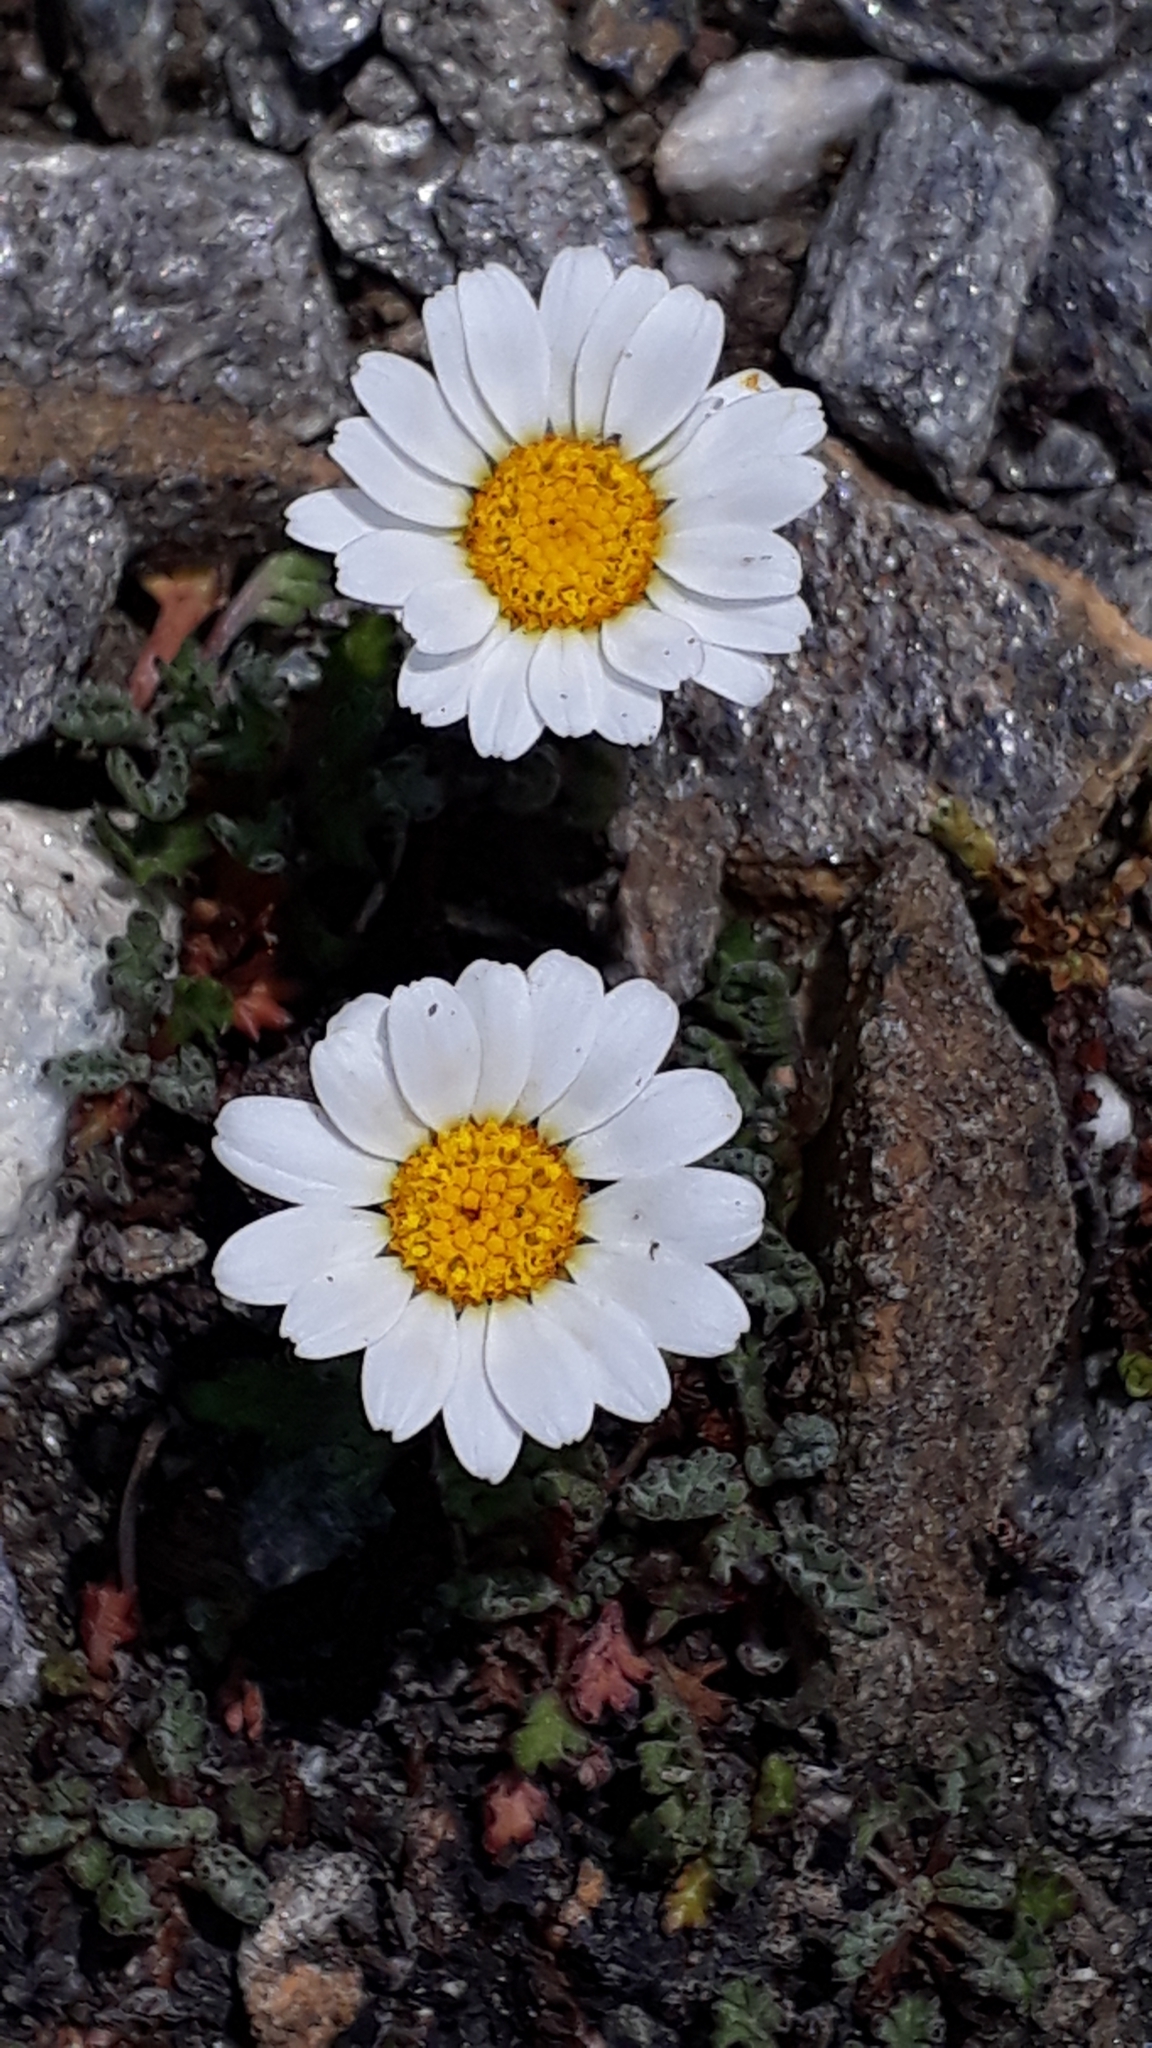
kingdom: Plantae
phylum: Tracheophyta
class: Magnoliopsida
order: Asterales
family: Asteraceae
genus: Leucanthemopsis
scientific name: Leucanthemopsis alpina
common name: Alpine moon daisy
